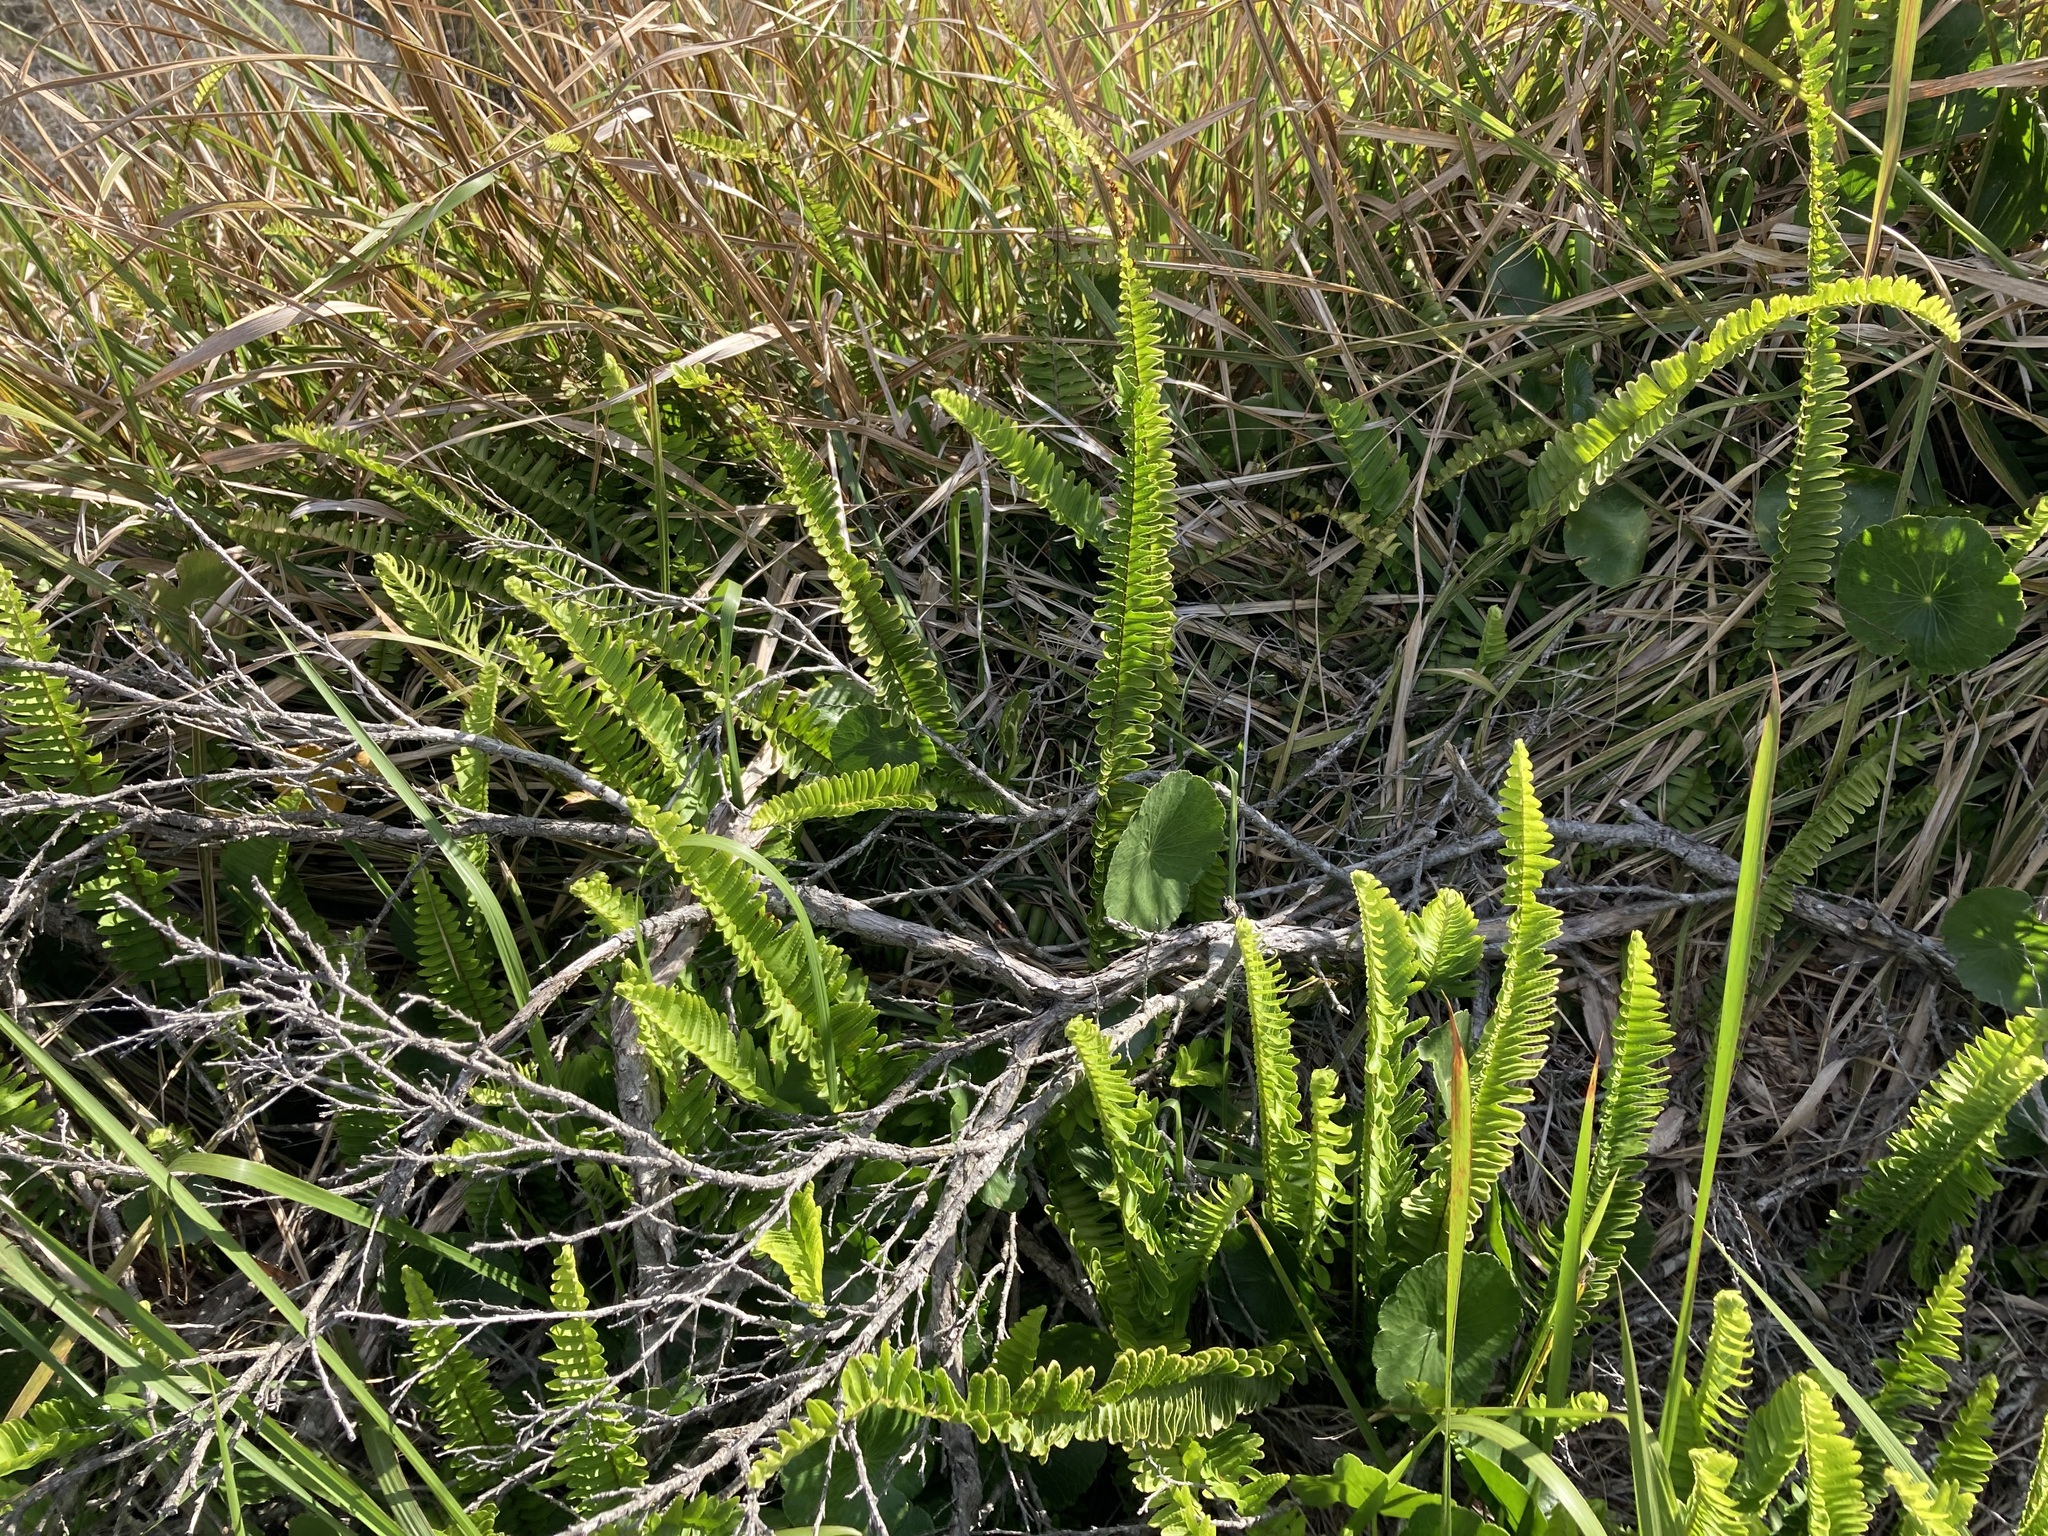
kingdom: Plantae
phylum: Tracheophyta
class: Polypodiopsida
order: Polypodiales
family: Nephrolepidaceae
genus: Nephrolepis
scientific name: Nephrolepis cordifolia
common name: Narrow swordfern
